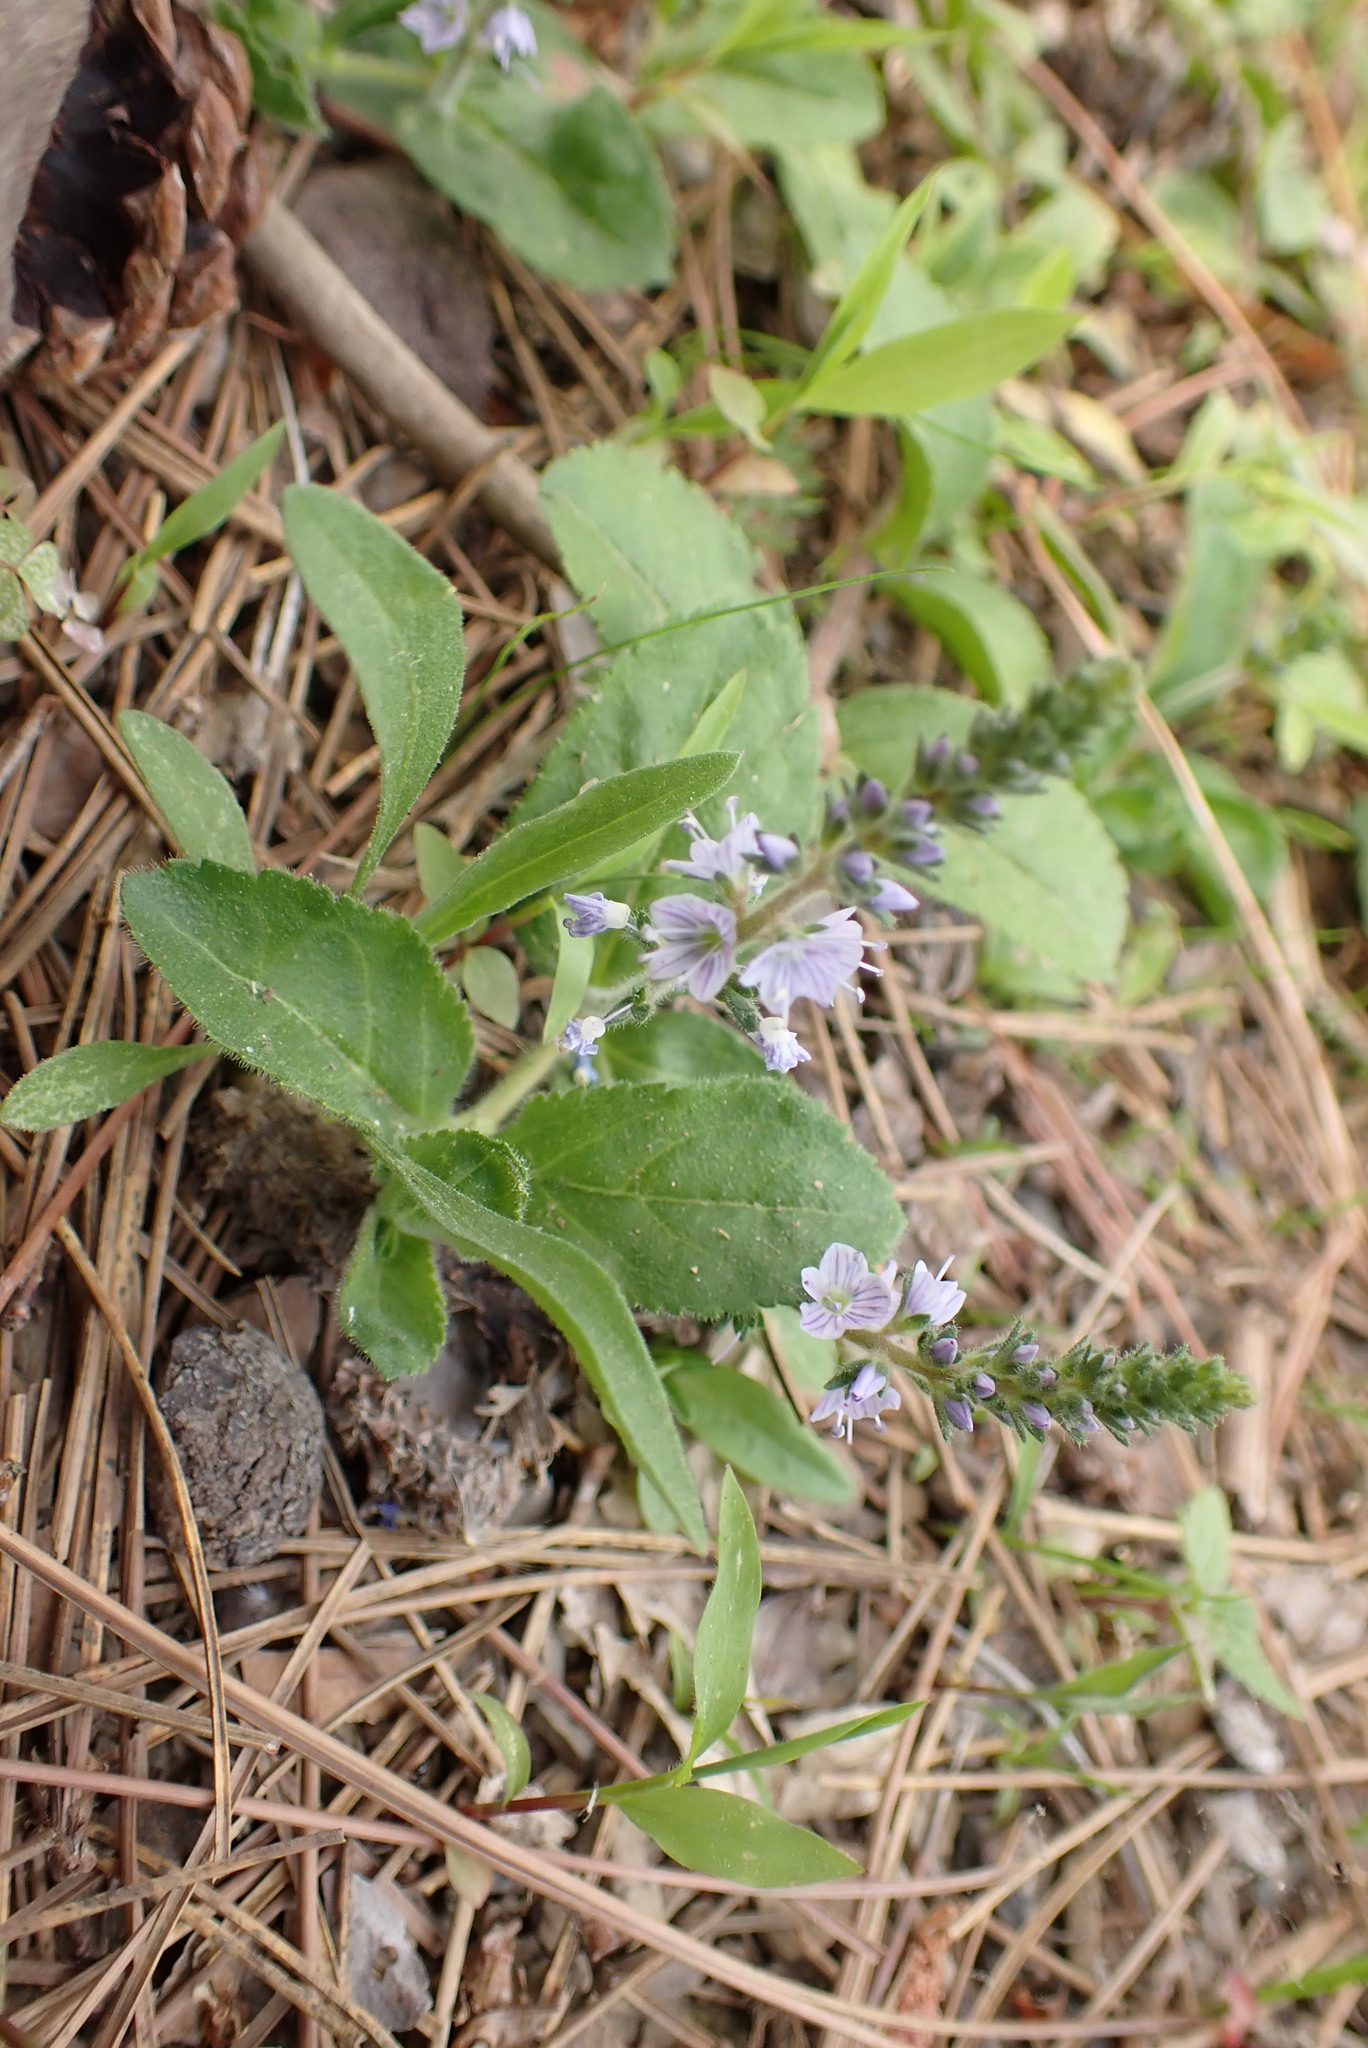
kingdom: Plantae
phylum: Tracheophyta
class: Magnoliopsida
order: Lamiales
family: Plantaginaceae
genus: Veronica
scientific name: Veronica officinalis
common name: Common speedwell
